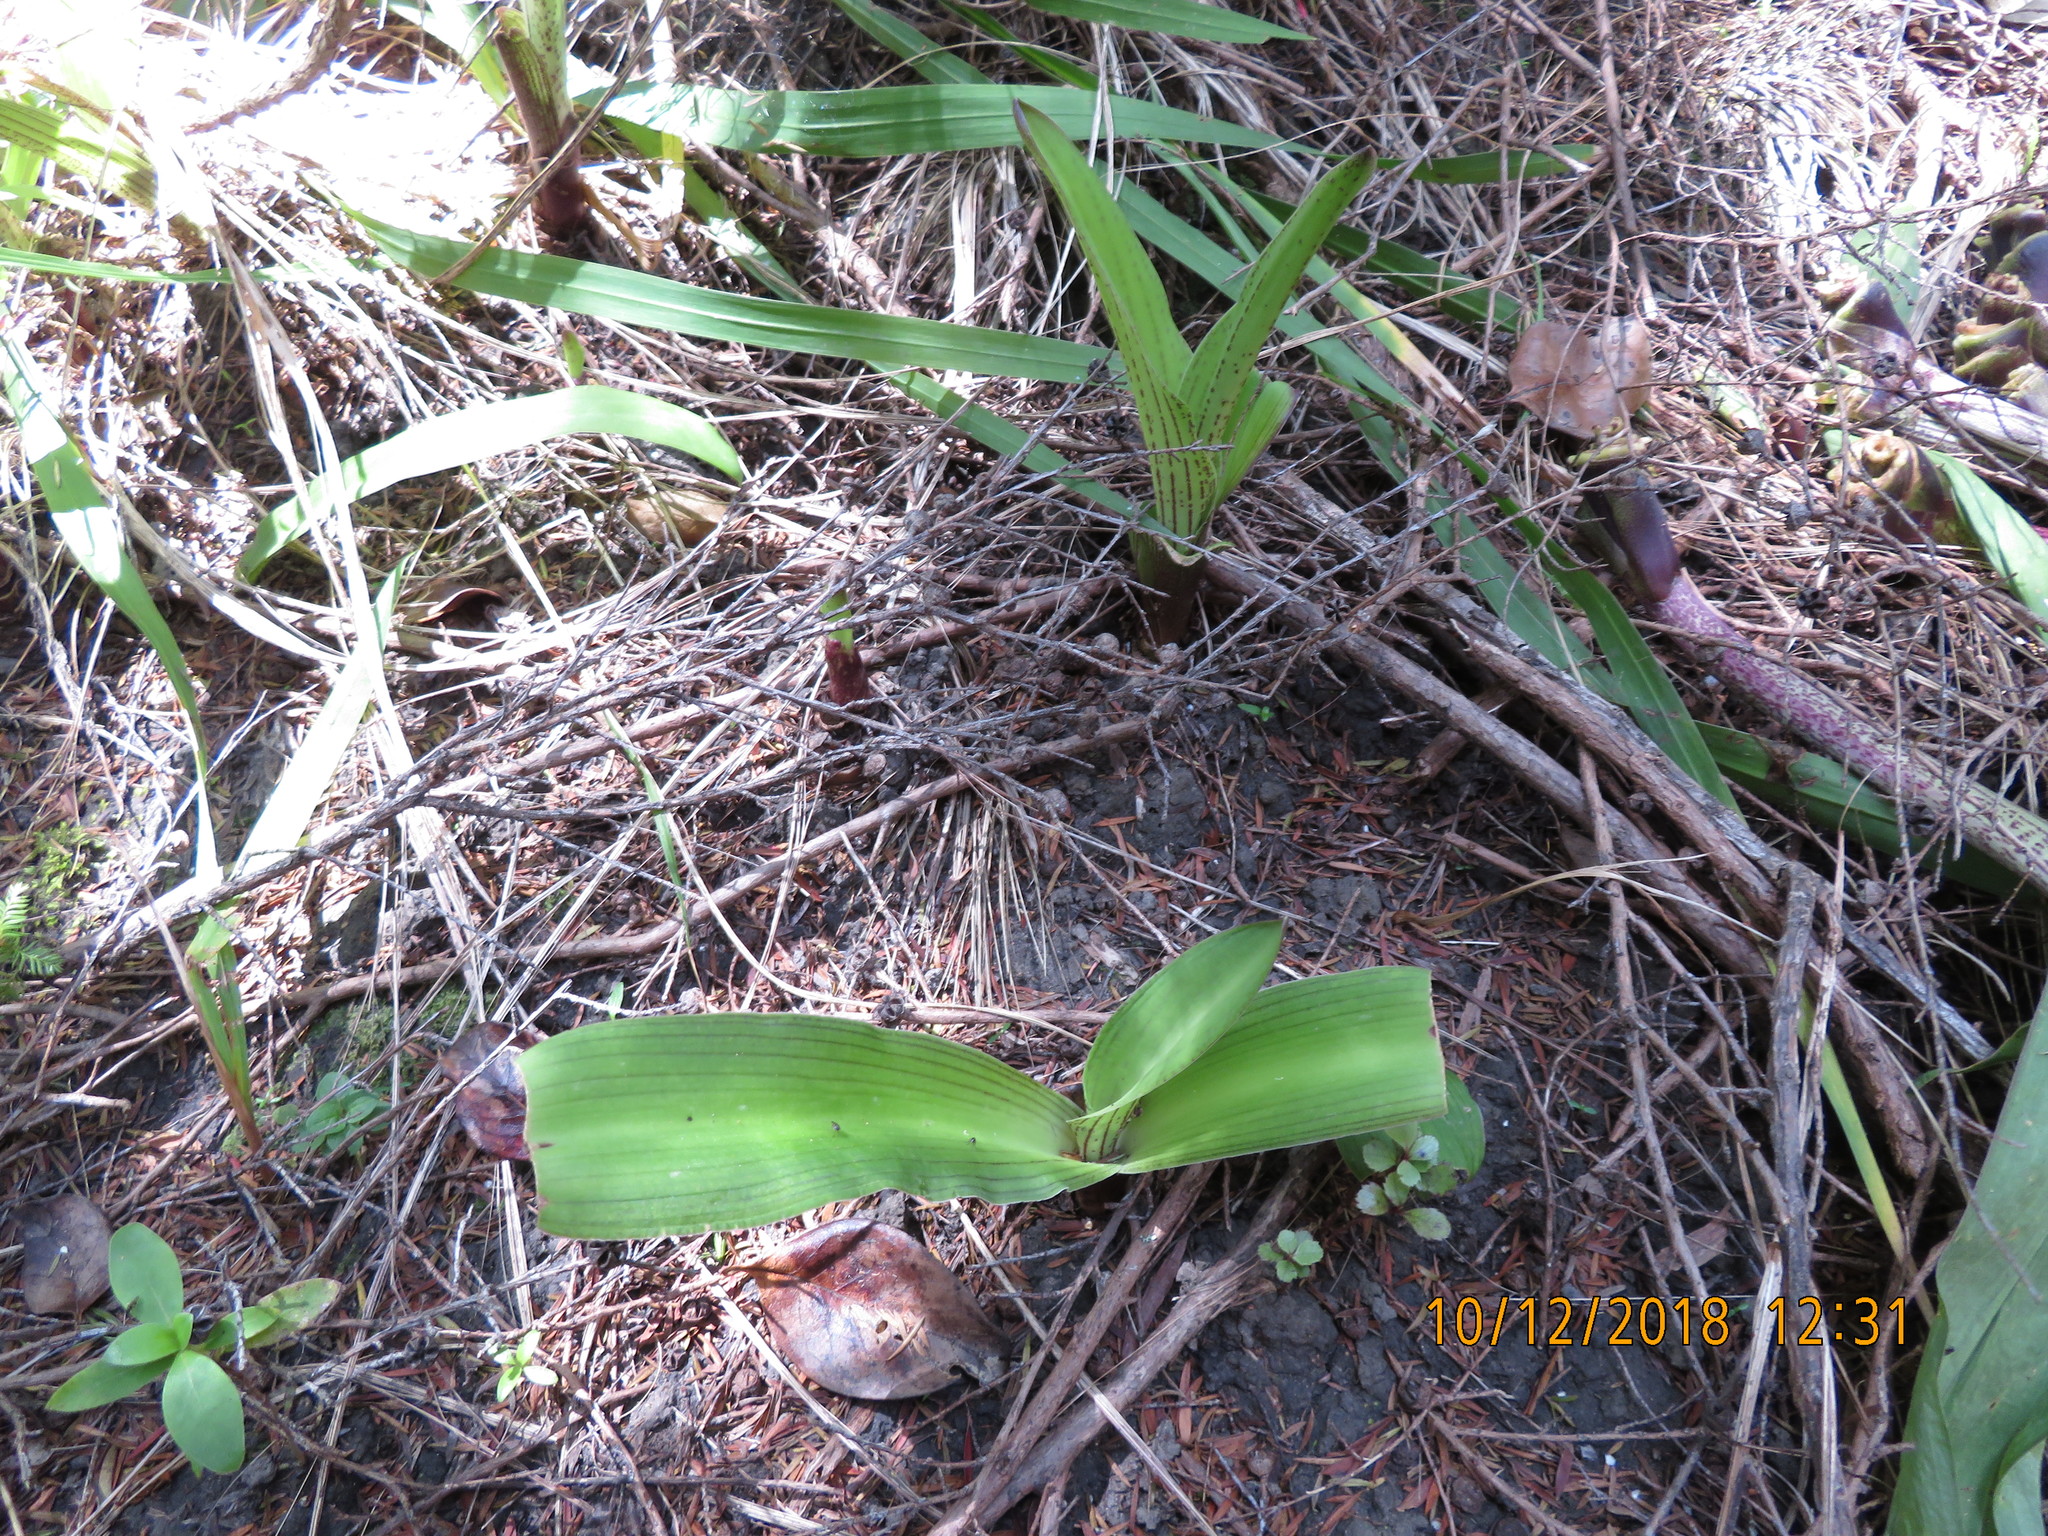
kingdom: Plantae
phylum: Tracheophyta
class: Magnoliopsida
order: Ericales
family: Primulaceae
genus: Myrsine
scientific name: Myrsine australis
